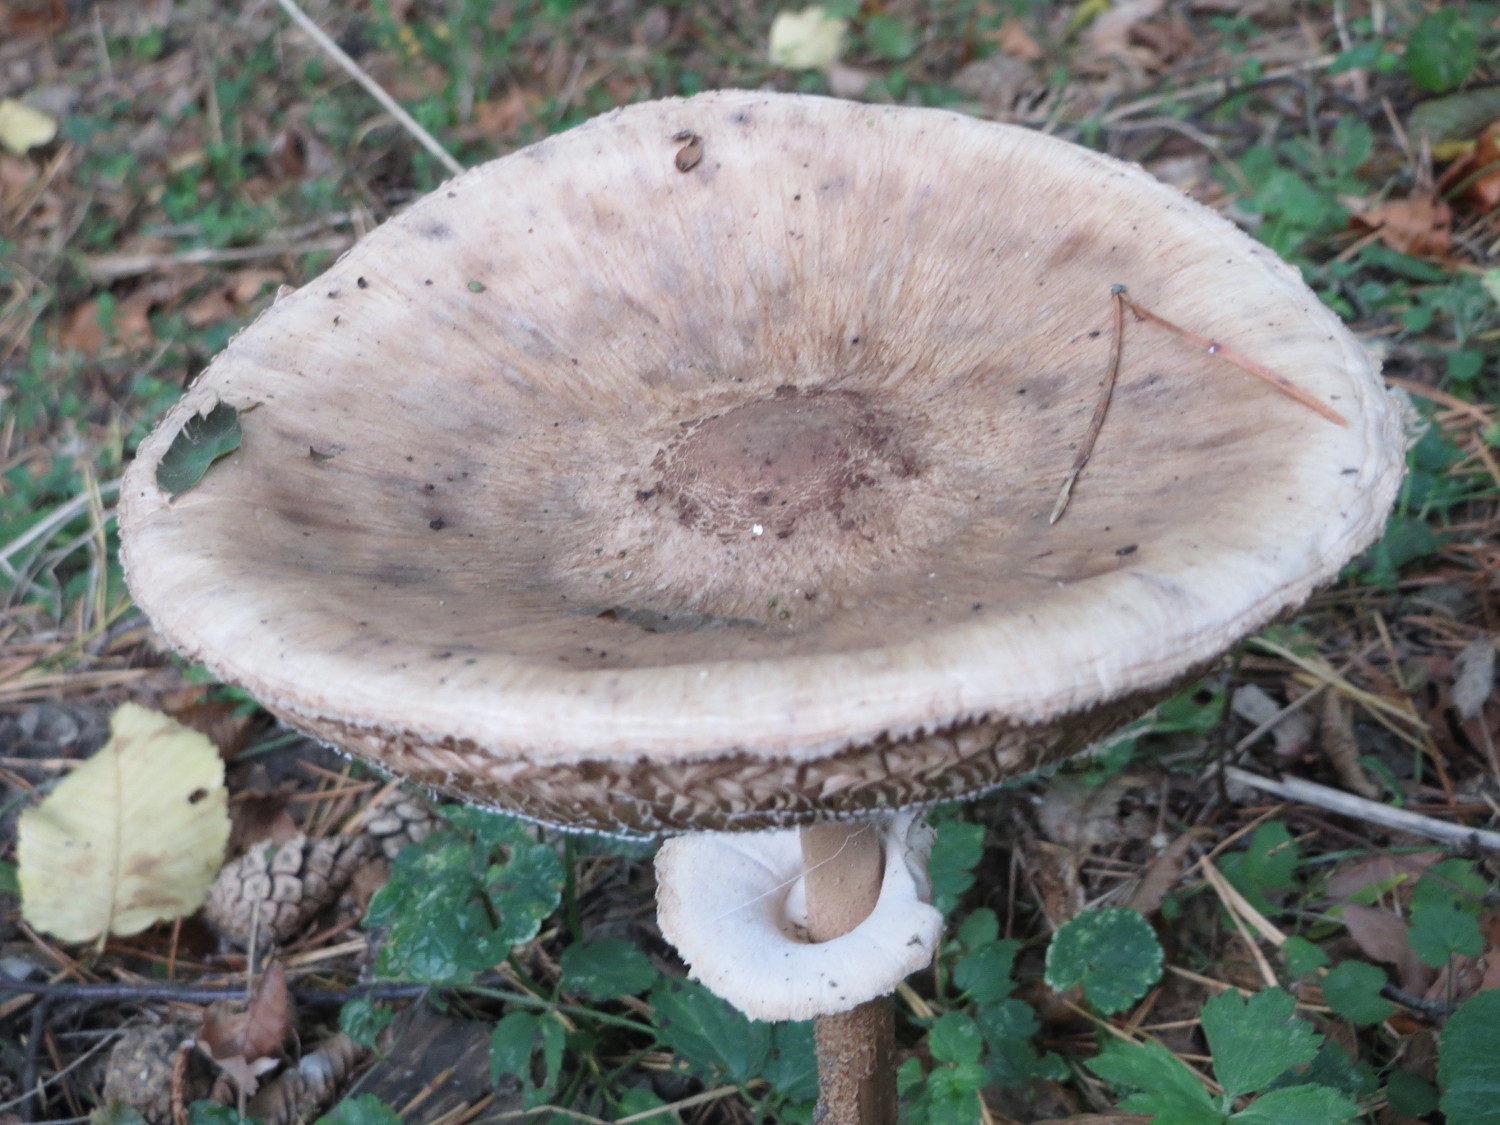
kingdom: Fungi
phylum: Basidiomycota
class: Agaricomycetes
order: Agaricales
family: Agaricaceae
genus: Macrolepiota
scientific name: Macrolepiota procera
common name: Parasol
